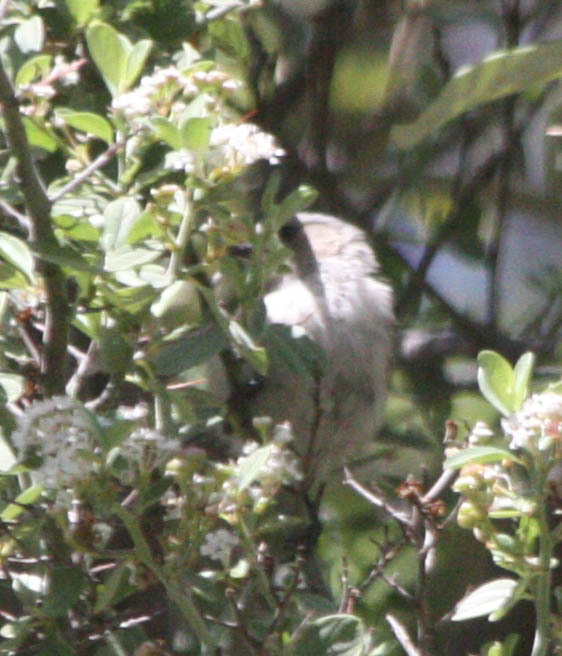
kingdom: Animalia
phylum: Chordata
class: Aves
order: Passeriformes
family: Aegithalidae
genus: Psaltriparus
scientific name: Psaltriparus minimus
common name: American bushtit
